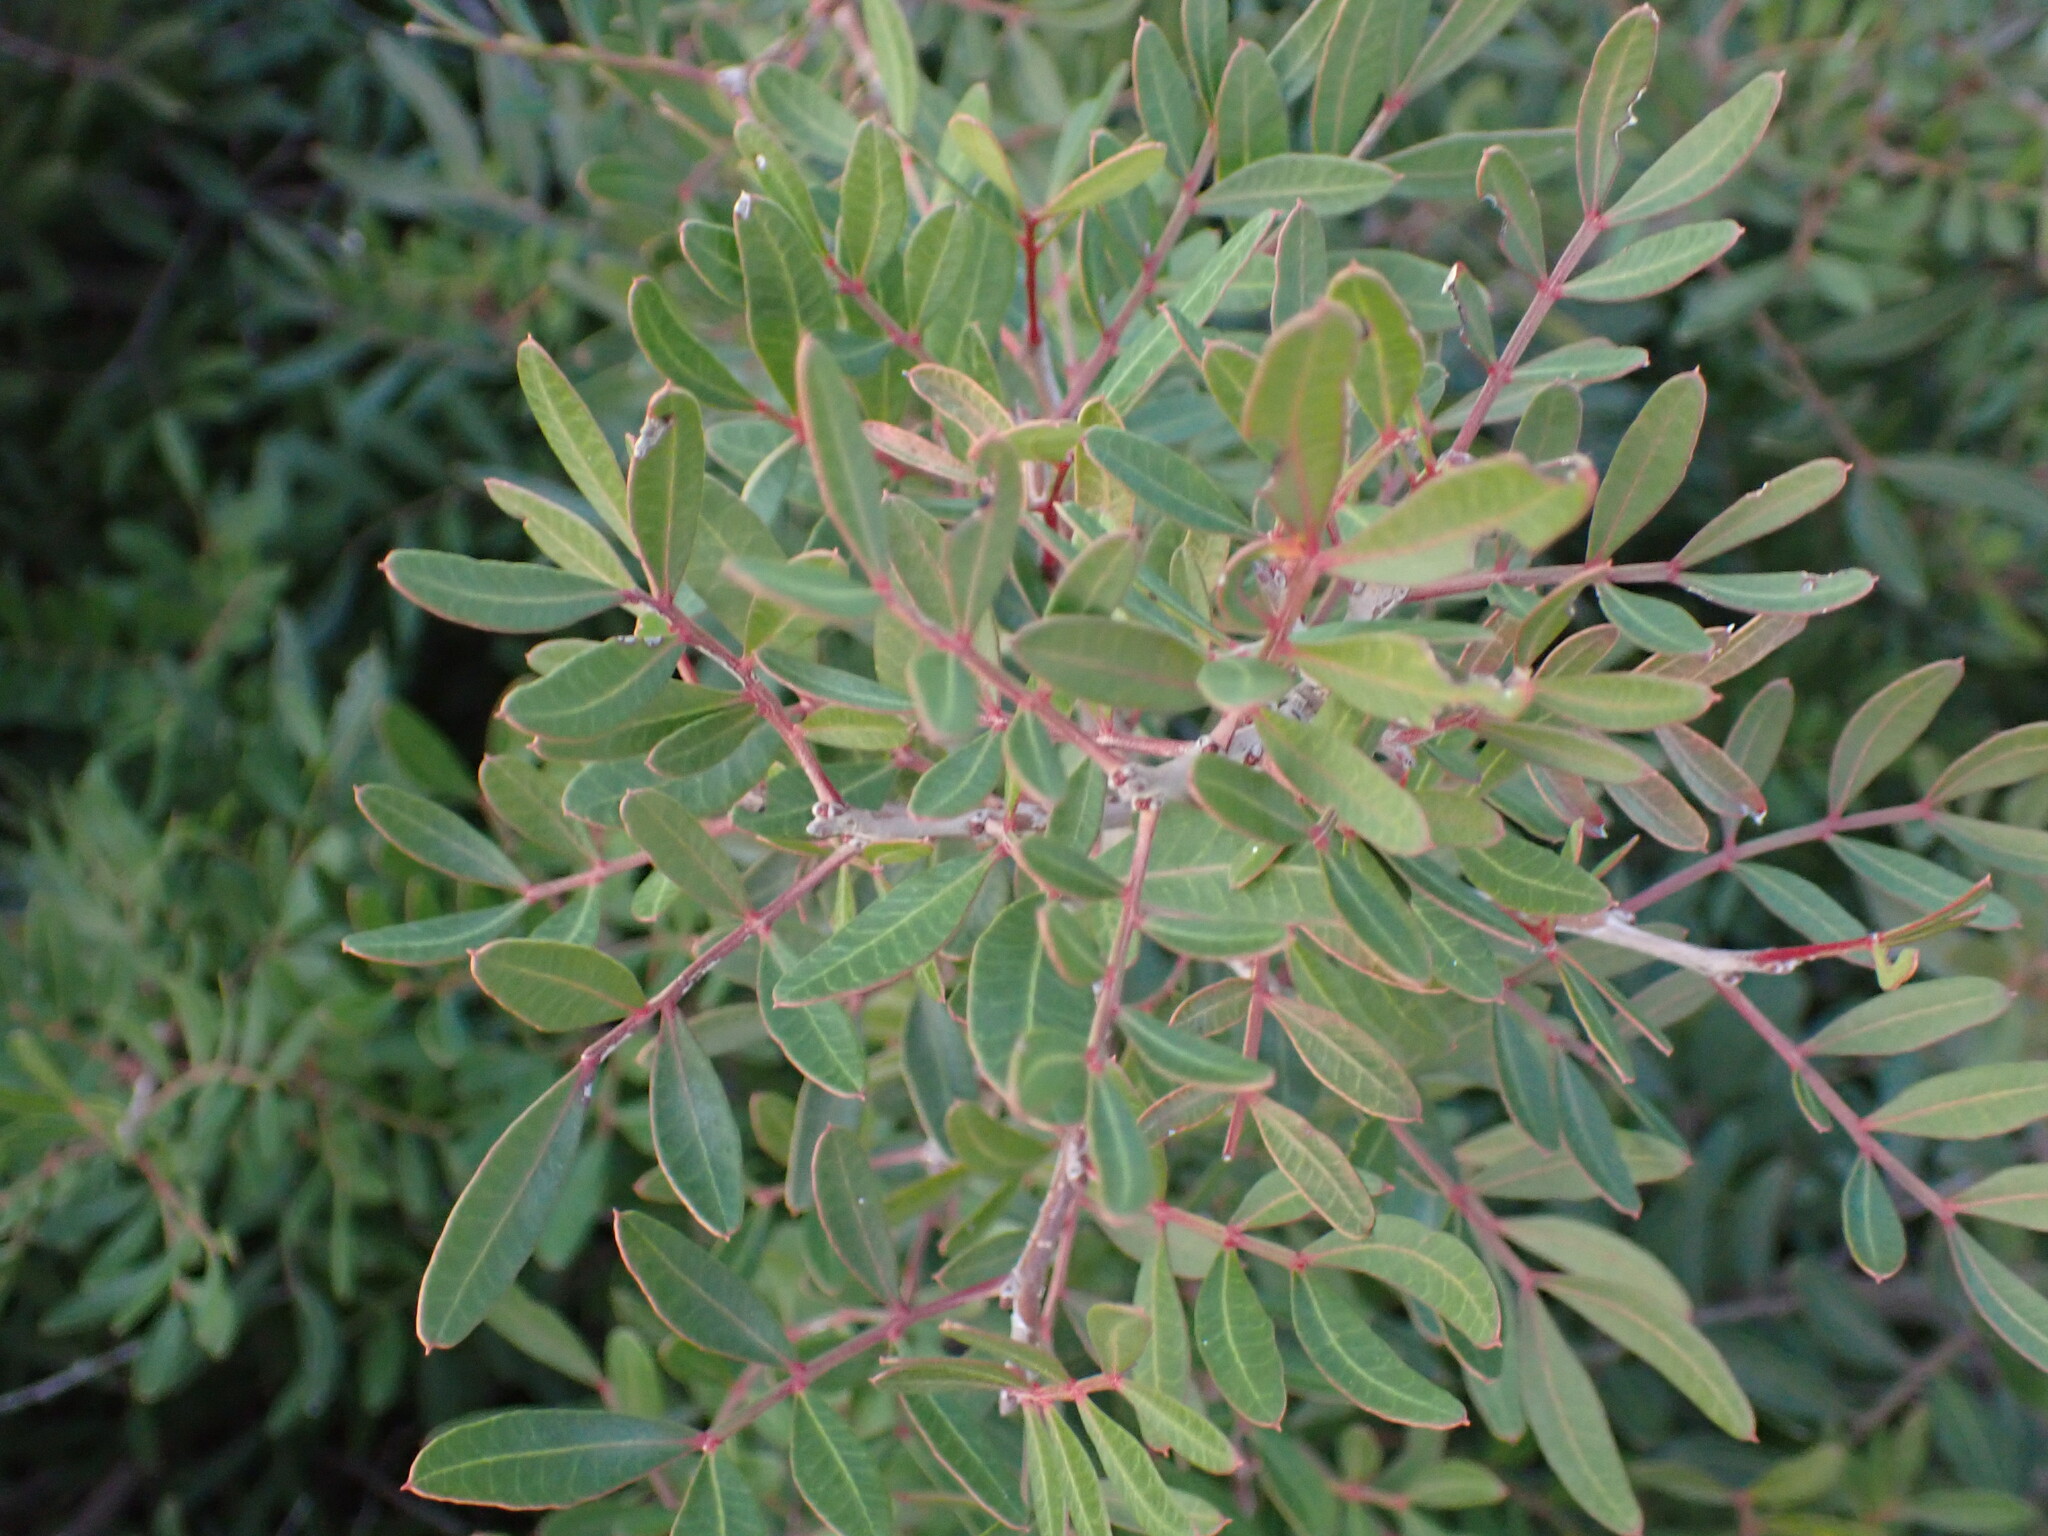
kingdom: Plantae
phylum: Tracheophyta
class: Magnoliopsida
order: Sapindales
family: Anacardiaceae
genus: Pistacia
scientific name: Pistacia lentiscus
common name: Lentisk
